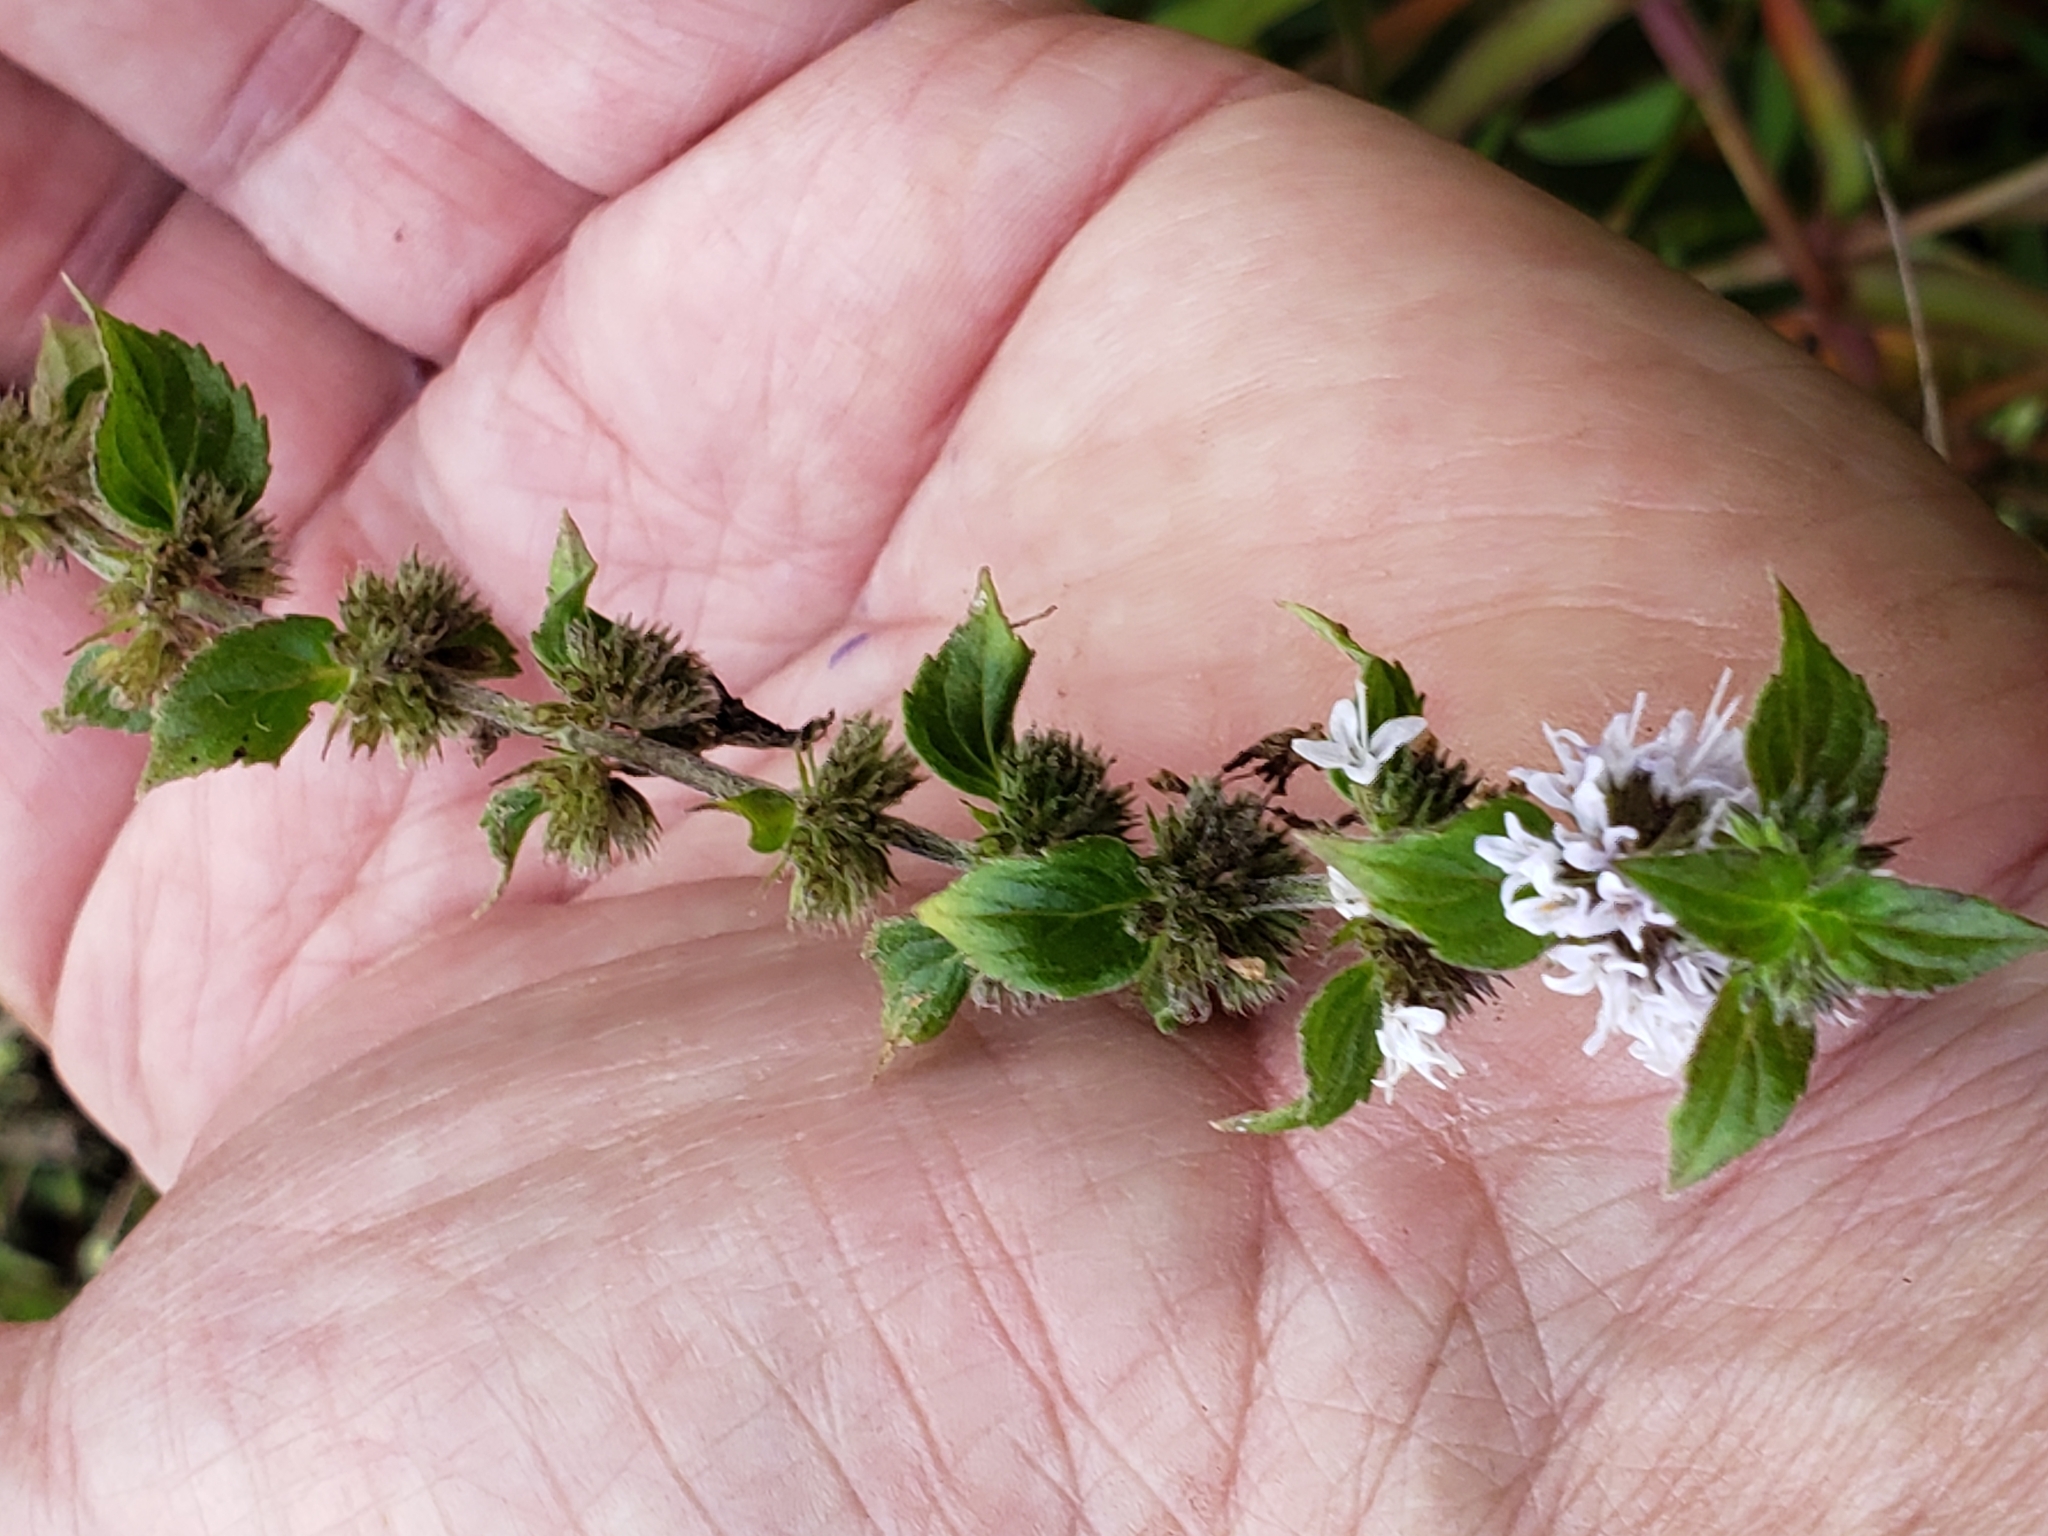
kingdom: Plantae
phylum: Tracheophyta
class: Magnoliopsida
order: Lamiales
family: Lamiaceae
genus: Mentha
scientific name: Mentha canadensis
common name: American corn mint
